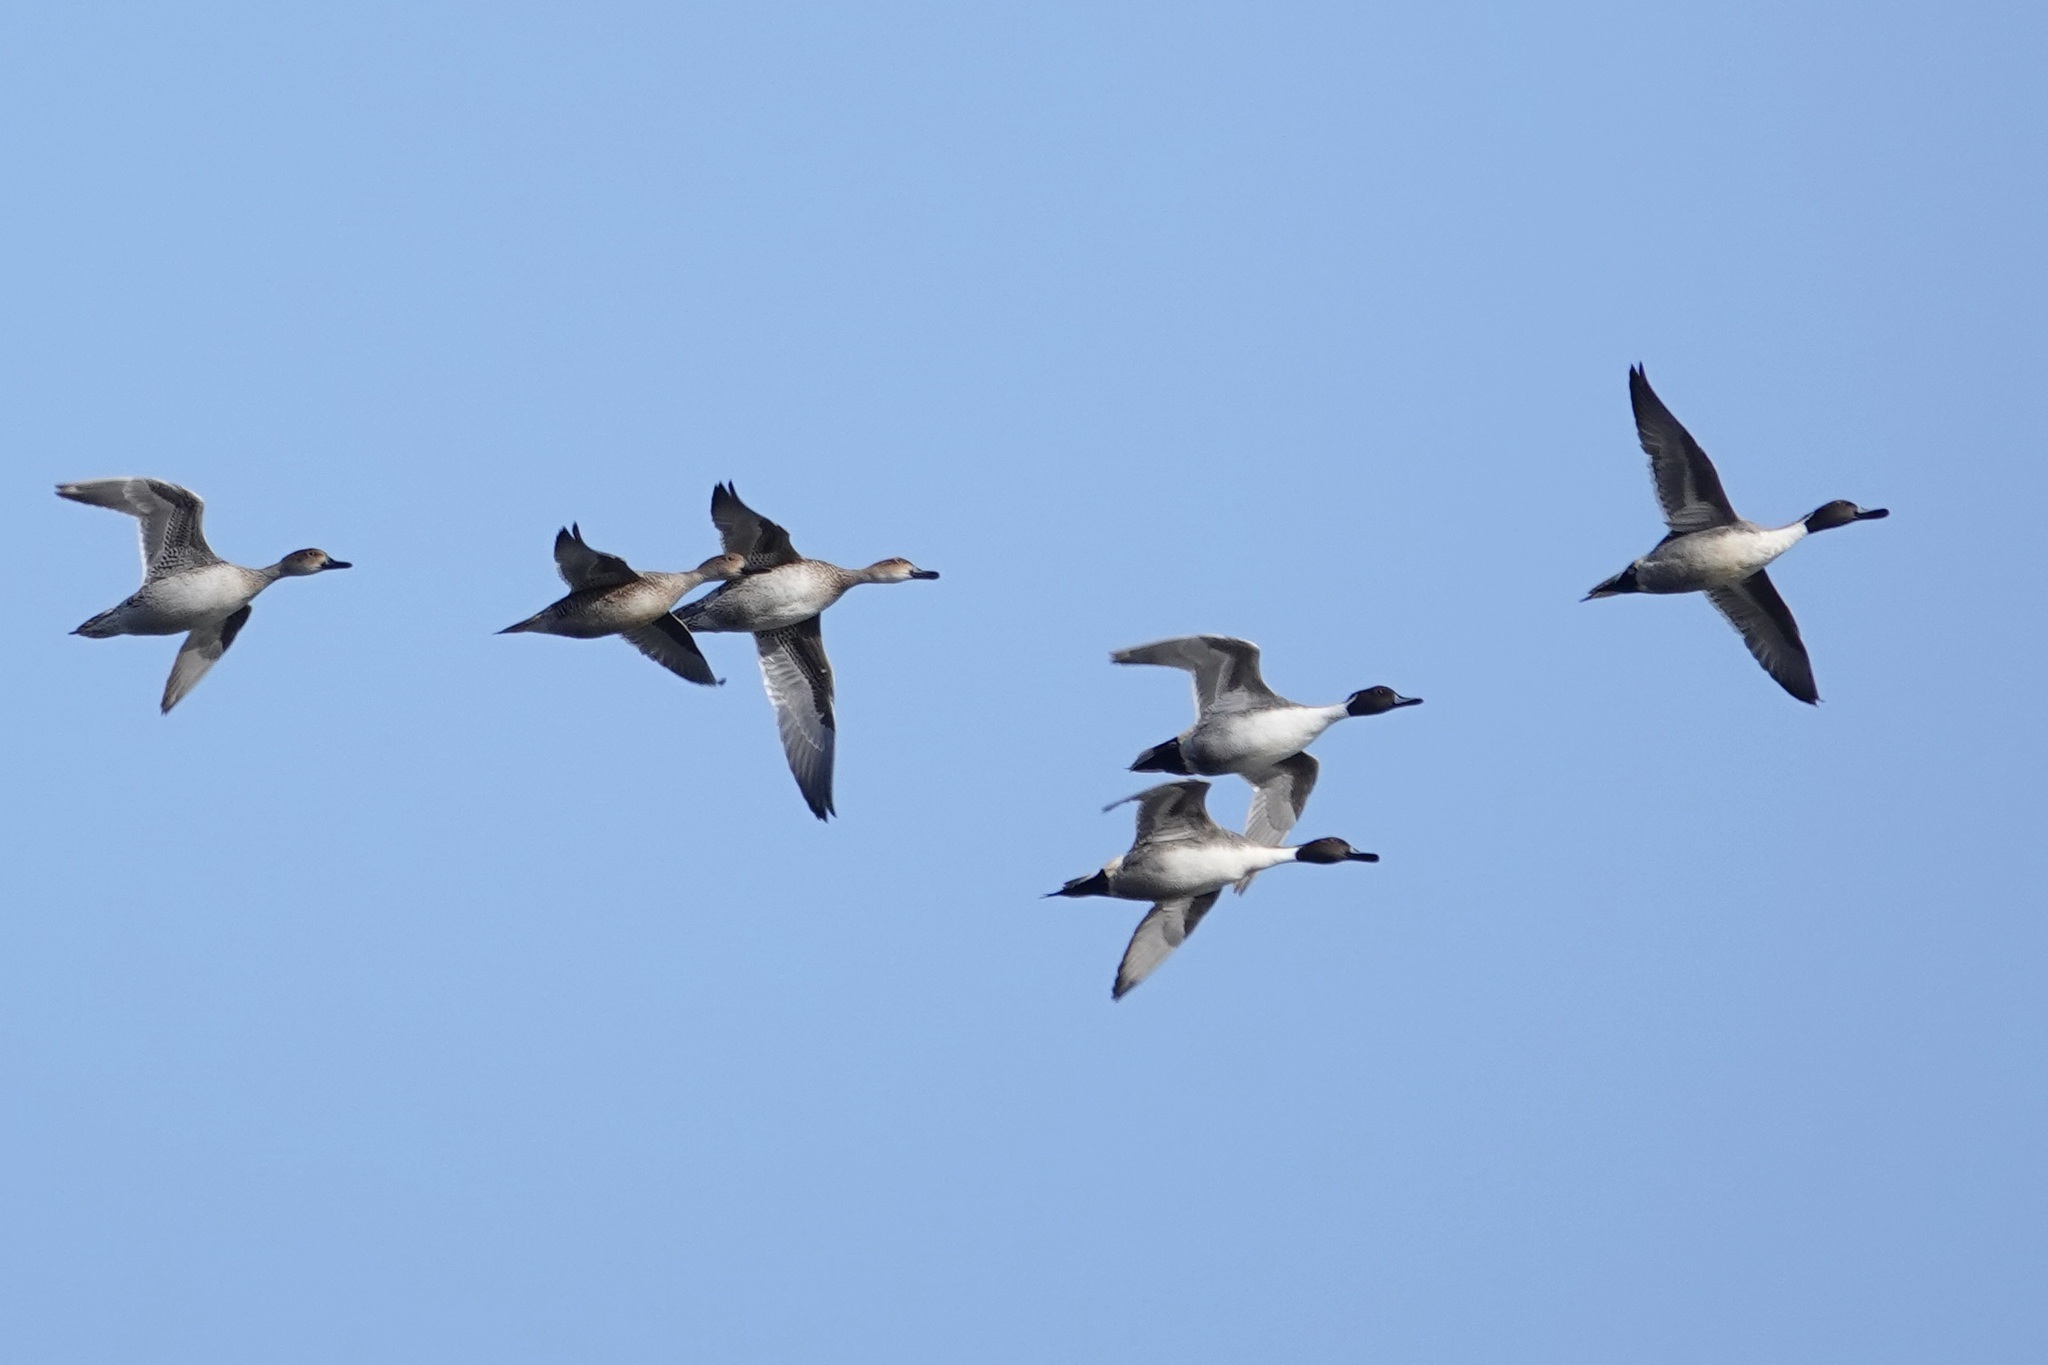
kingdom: Animalia
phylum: Chordata
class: Aves
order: Anseriformes
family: Anatidae
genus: Anas
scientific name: Anas acuta
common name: Northern pintail
